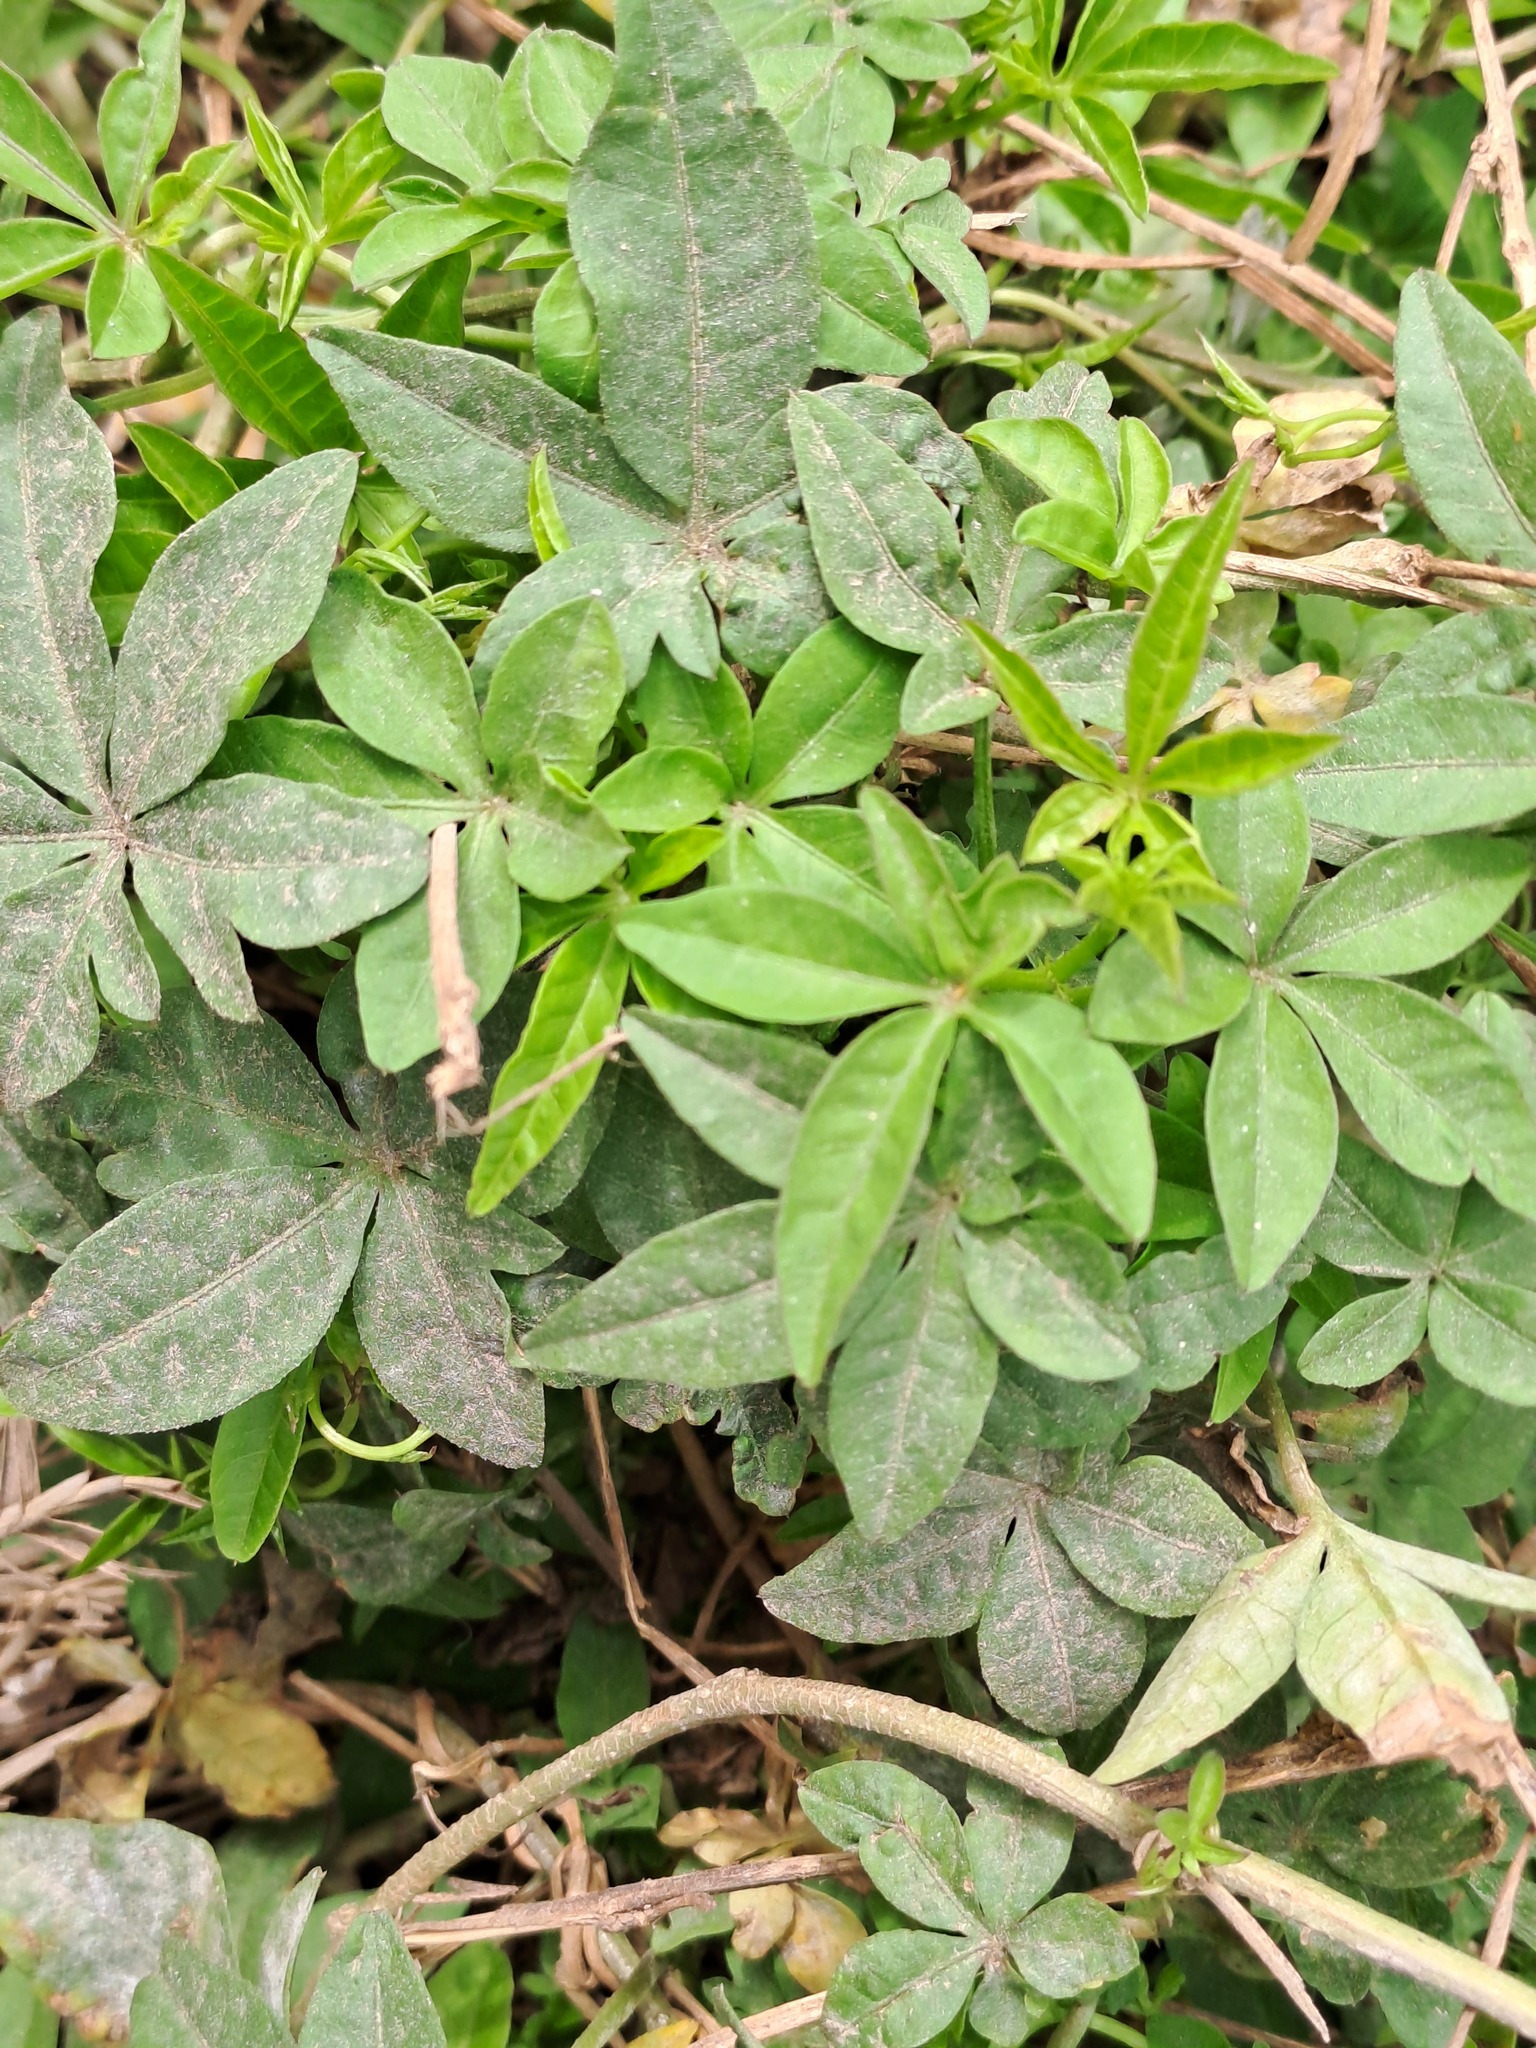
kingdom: Plantae
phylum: Tracheophyta
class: Magnoliopsida
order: Solanales
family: Convolvulaceae
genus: Ipomoea
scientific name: Ipomoea cairica
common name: Mile a minute vine
